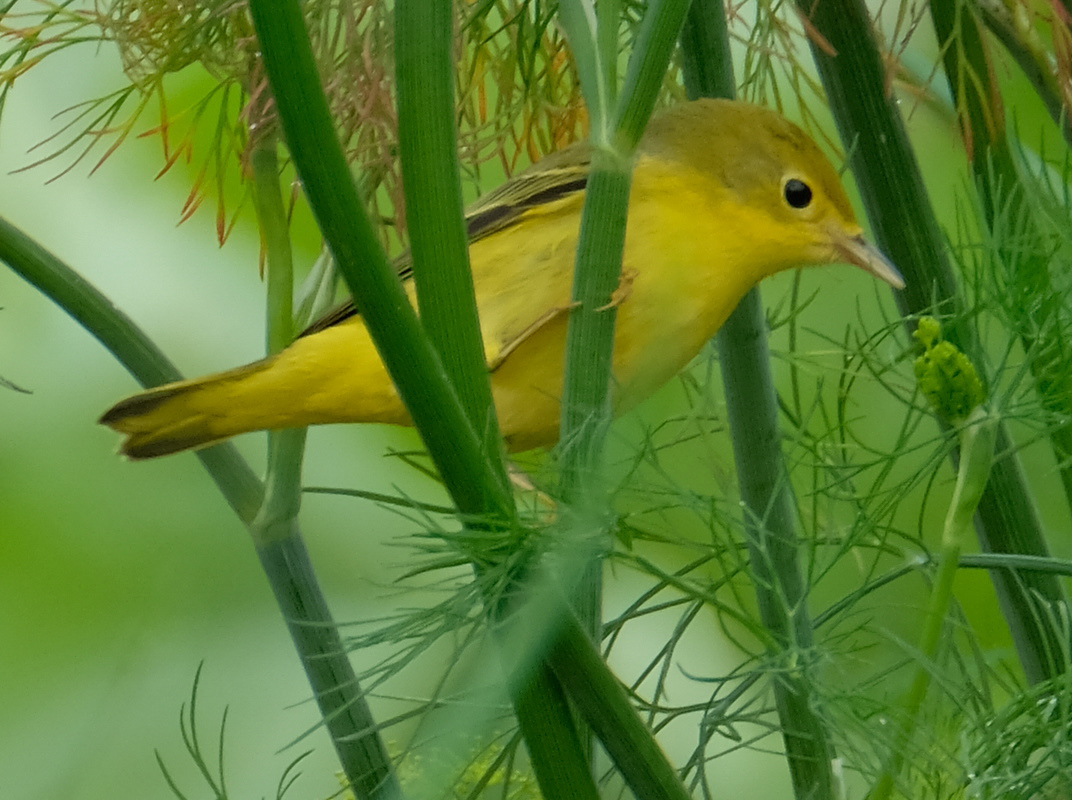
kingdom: Animalia
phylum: Chordata
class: Aves
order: Passeriformes
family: Parulidae
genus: Setophaga
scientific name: Setophaga petechia
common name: Yellow warbler
